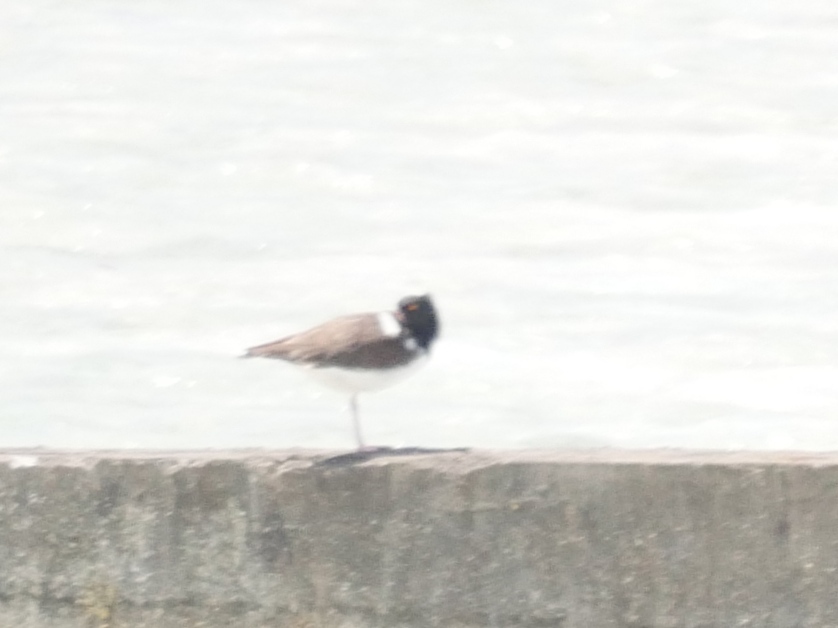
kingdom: Animalia
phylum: Chordata
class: Aves
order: Charadriiformes
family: Haematopodidae
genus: Haematopus
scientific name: Haematopus palliatus
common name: American oystercatcher
